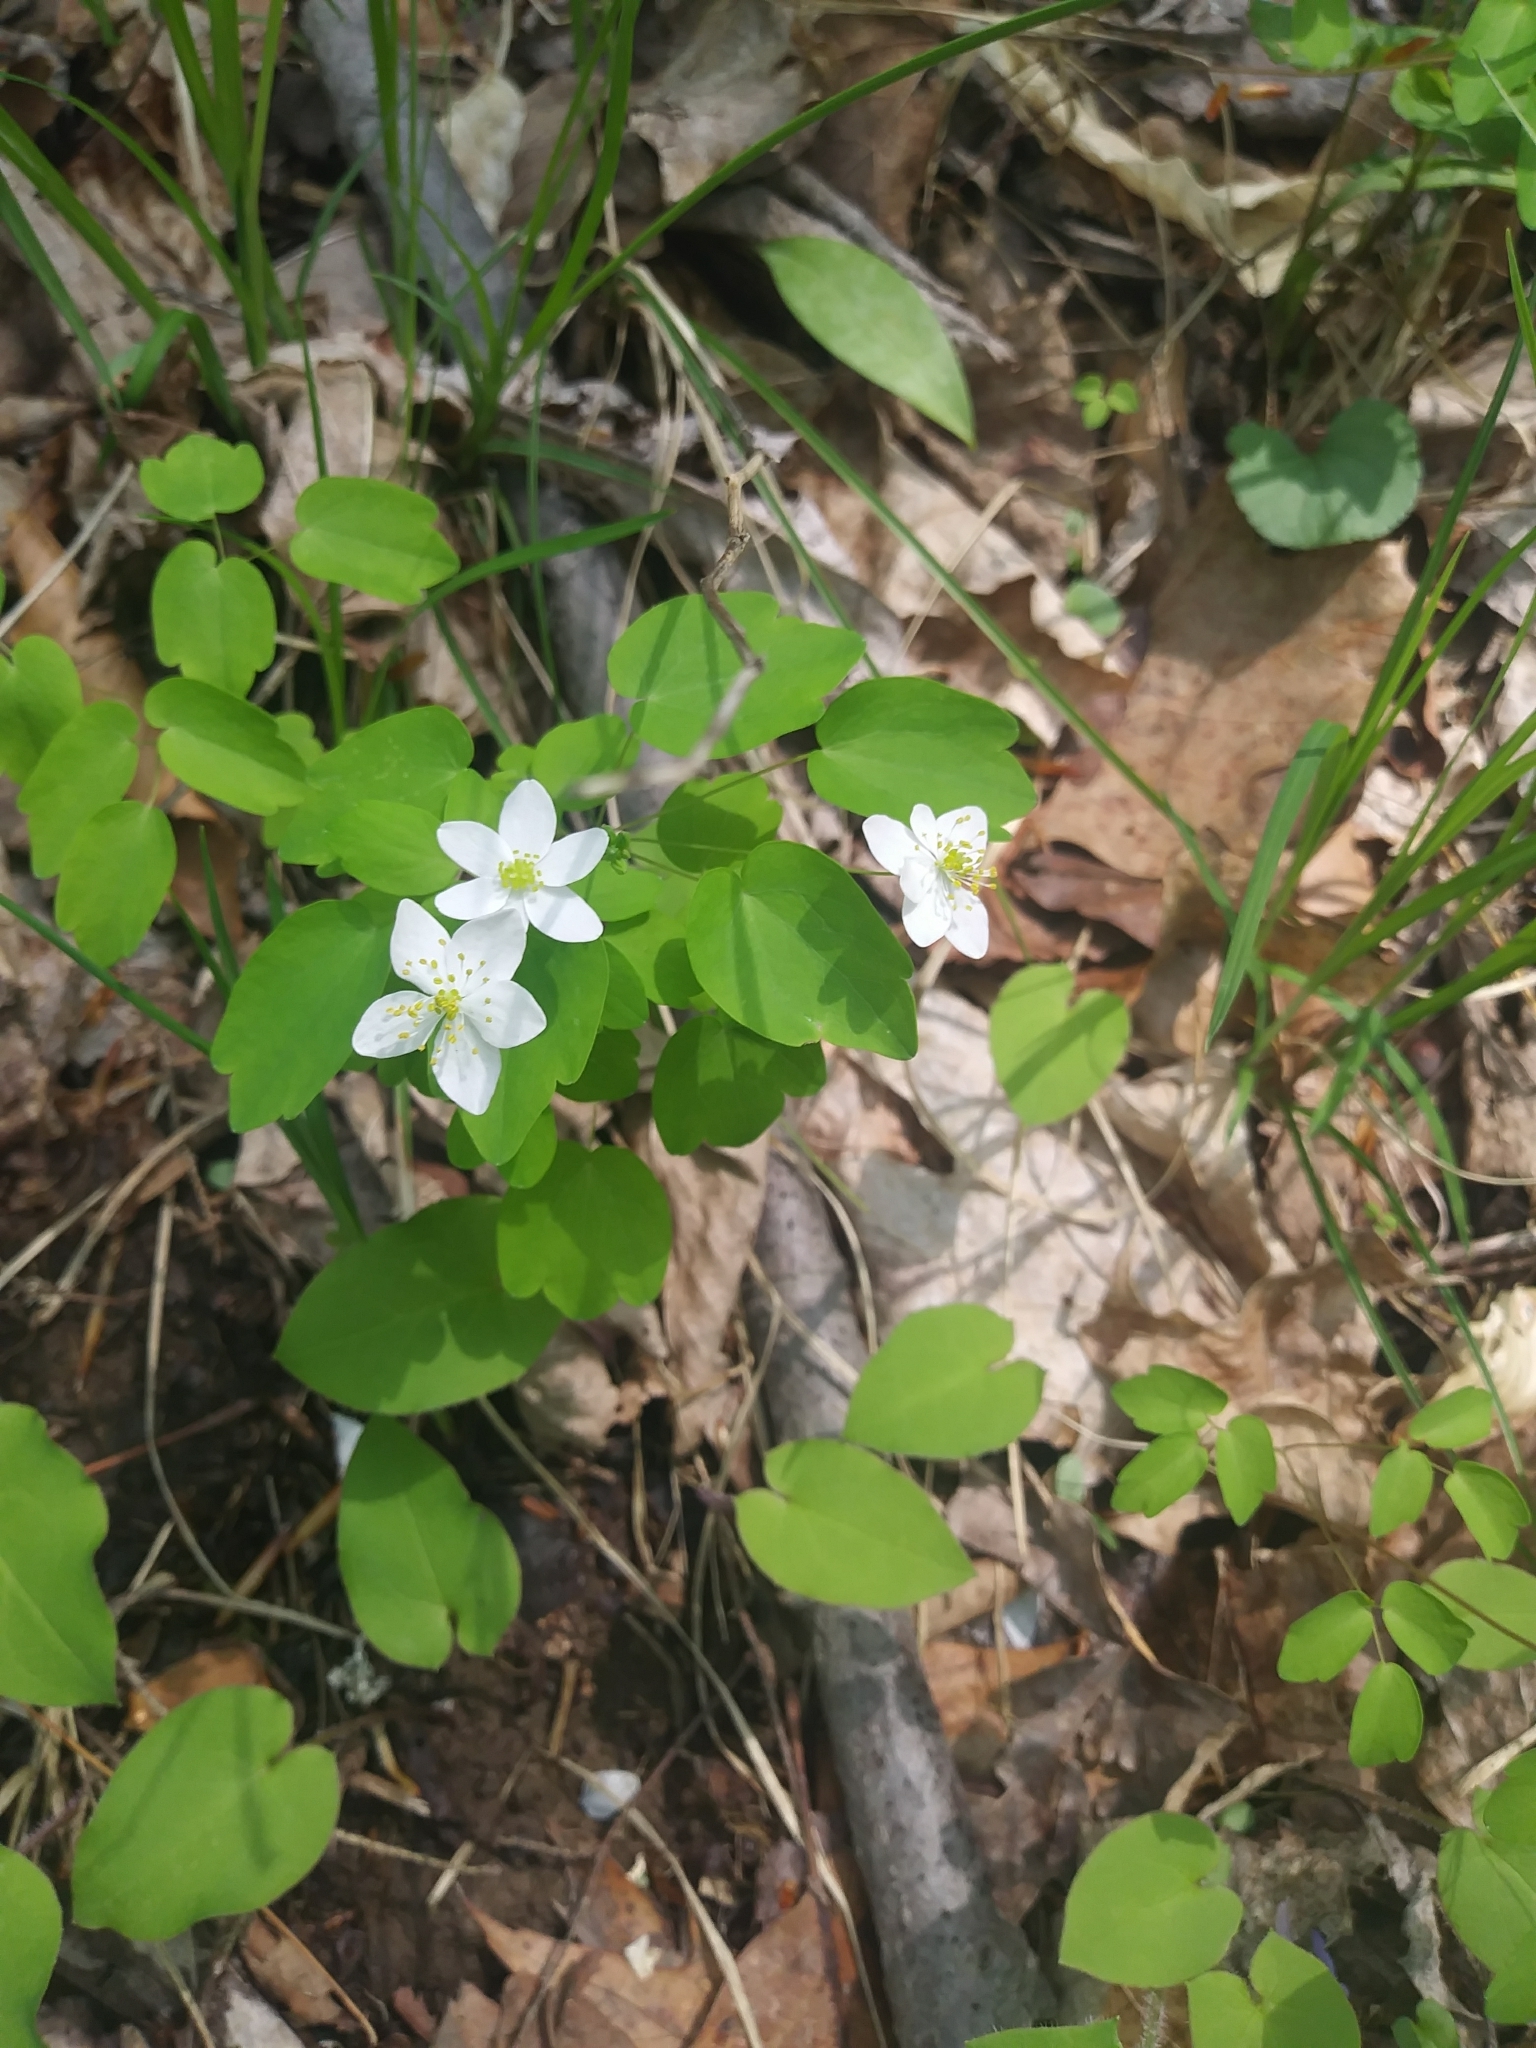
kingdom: Plantae
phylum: Tracheophyta
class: Magnoliopsida
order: Ranunculales
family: Ranunculaceae
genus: Thalictrum
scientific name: Thalictrum thalictroides
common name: Rue-anemone
